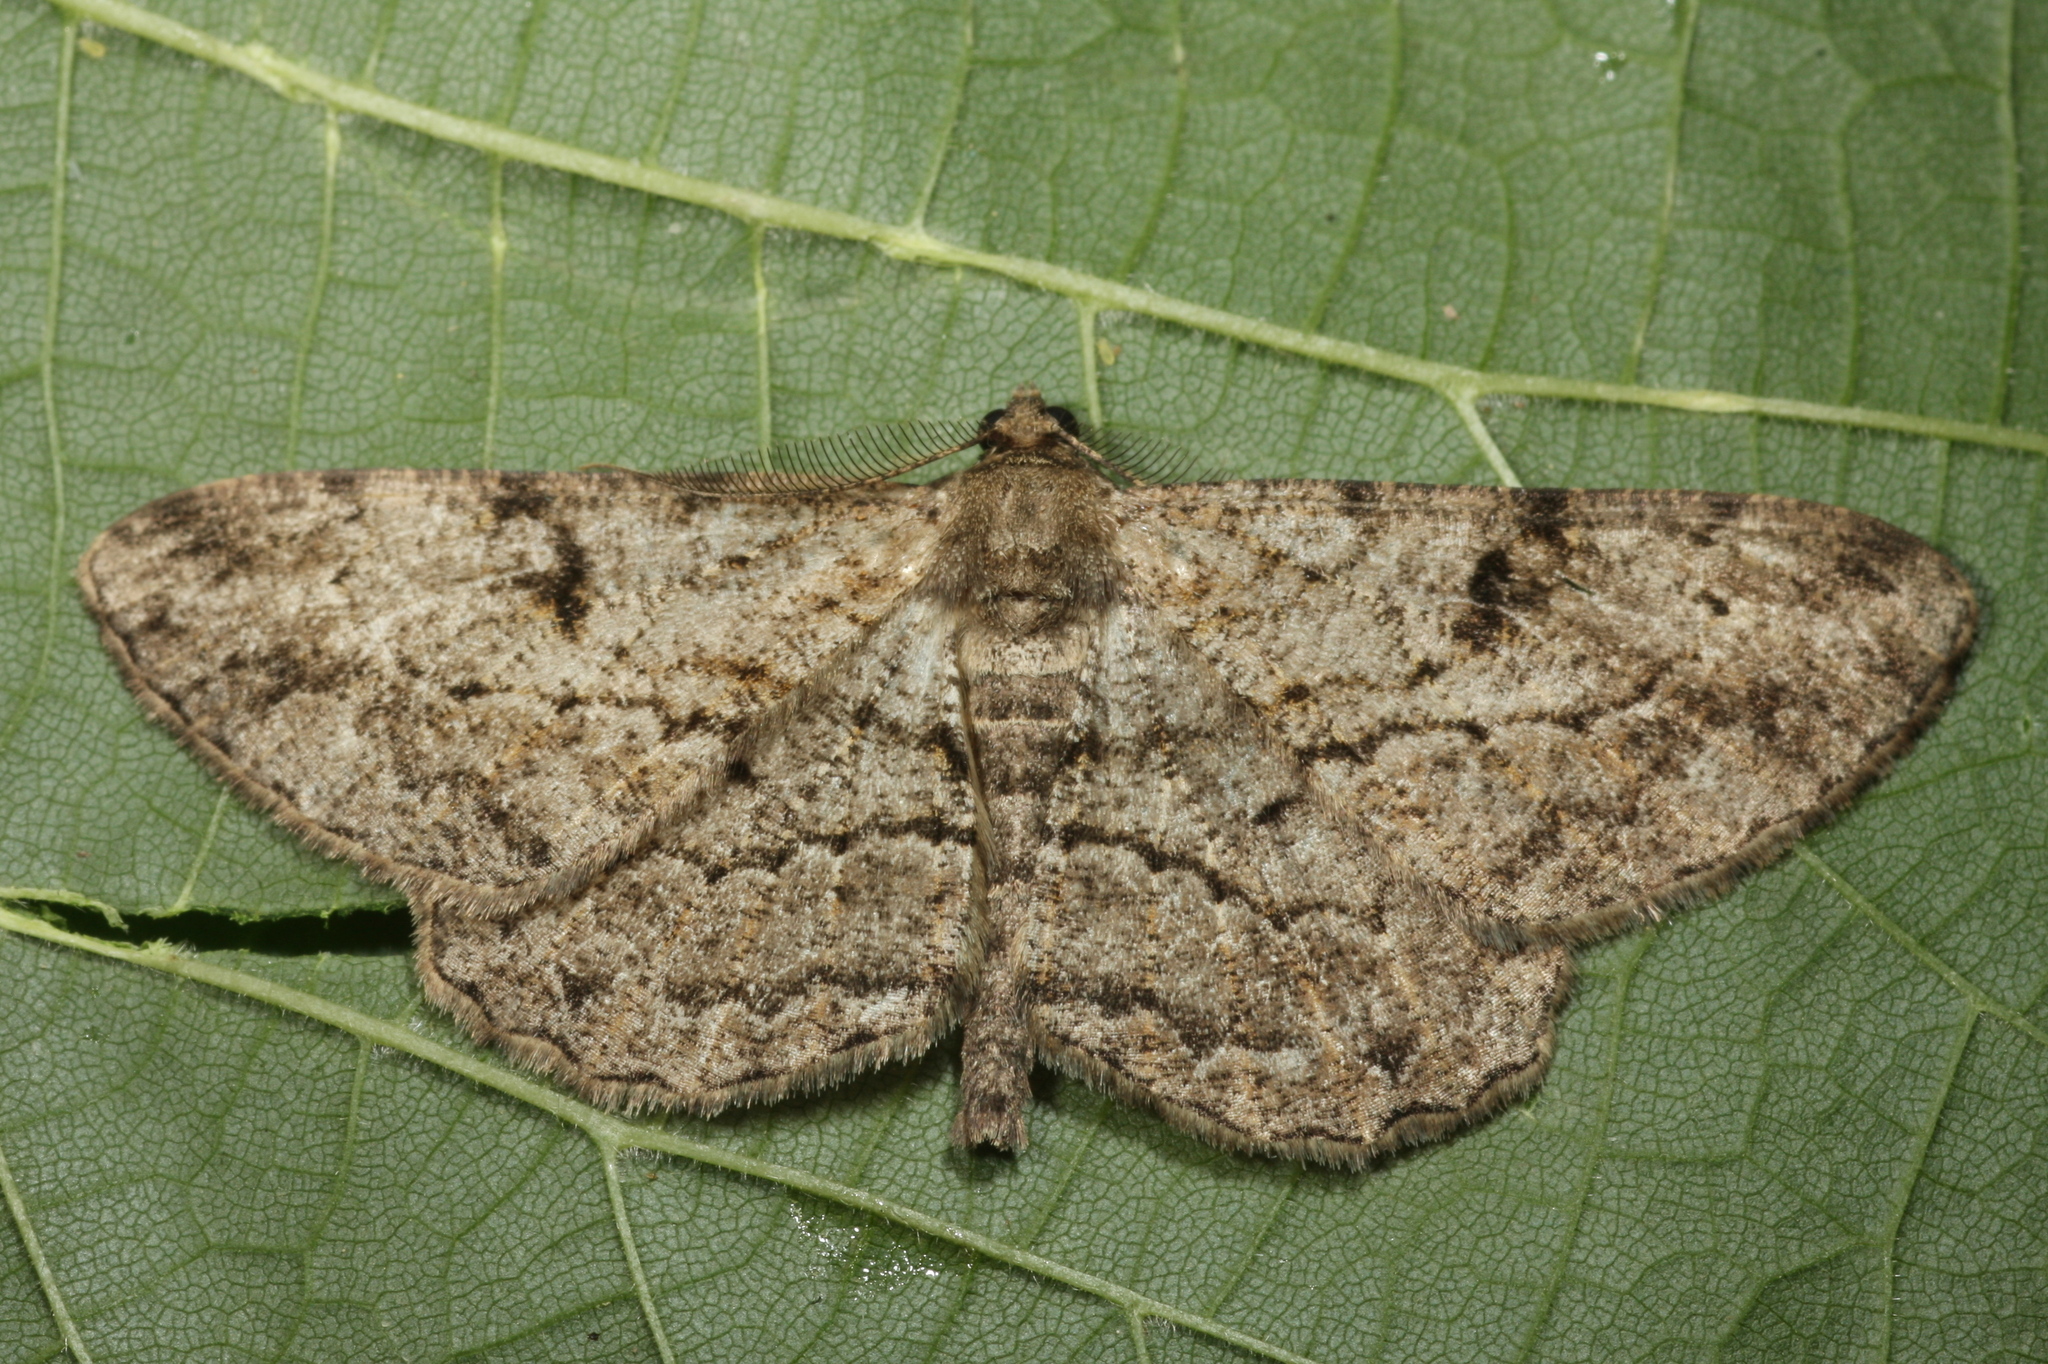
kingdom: Animalia
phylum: Arthropoda
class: Insecta
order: Lepidoptera
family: Geometridae
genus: Peribatodes
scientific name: Peribatodes rhomboidaria
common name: Willow beauty
